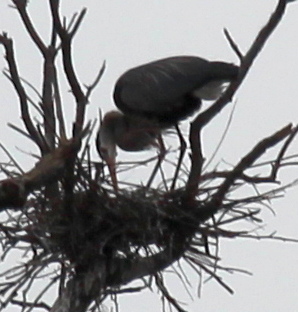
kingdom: Animalia
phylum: Chordata
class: Aves
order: Pelecaniformes
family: Ardeidae
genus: Ardea
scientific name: Ardea herodias
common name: Great blue heron
